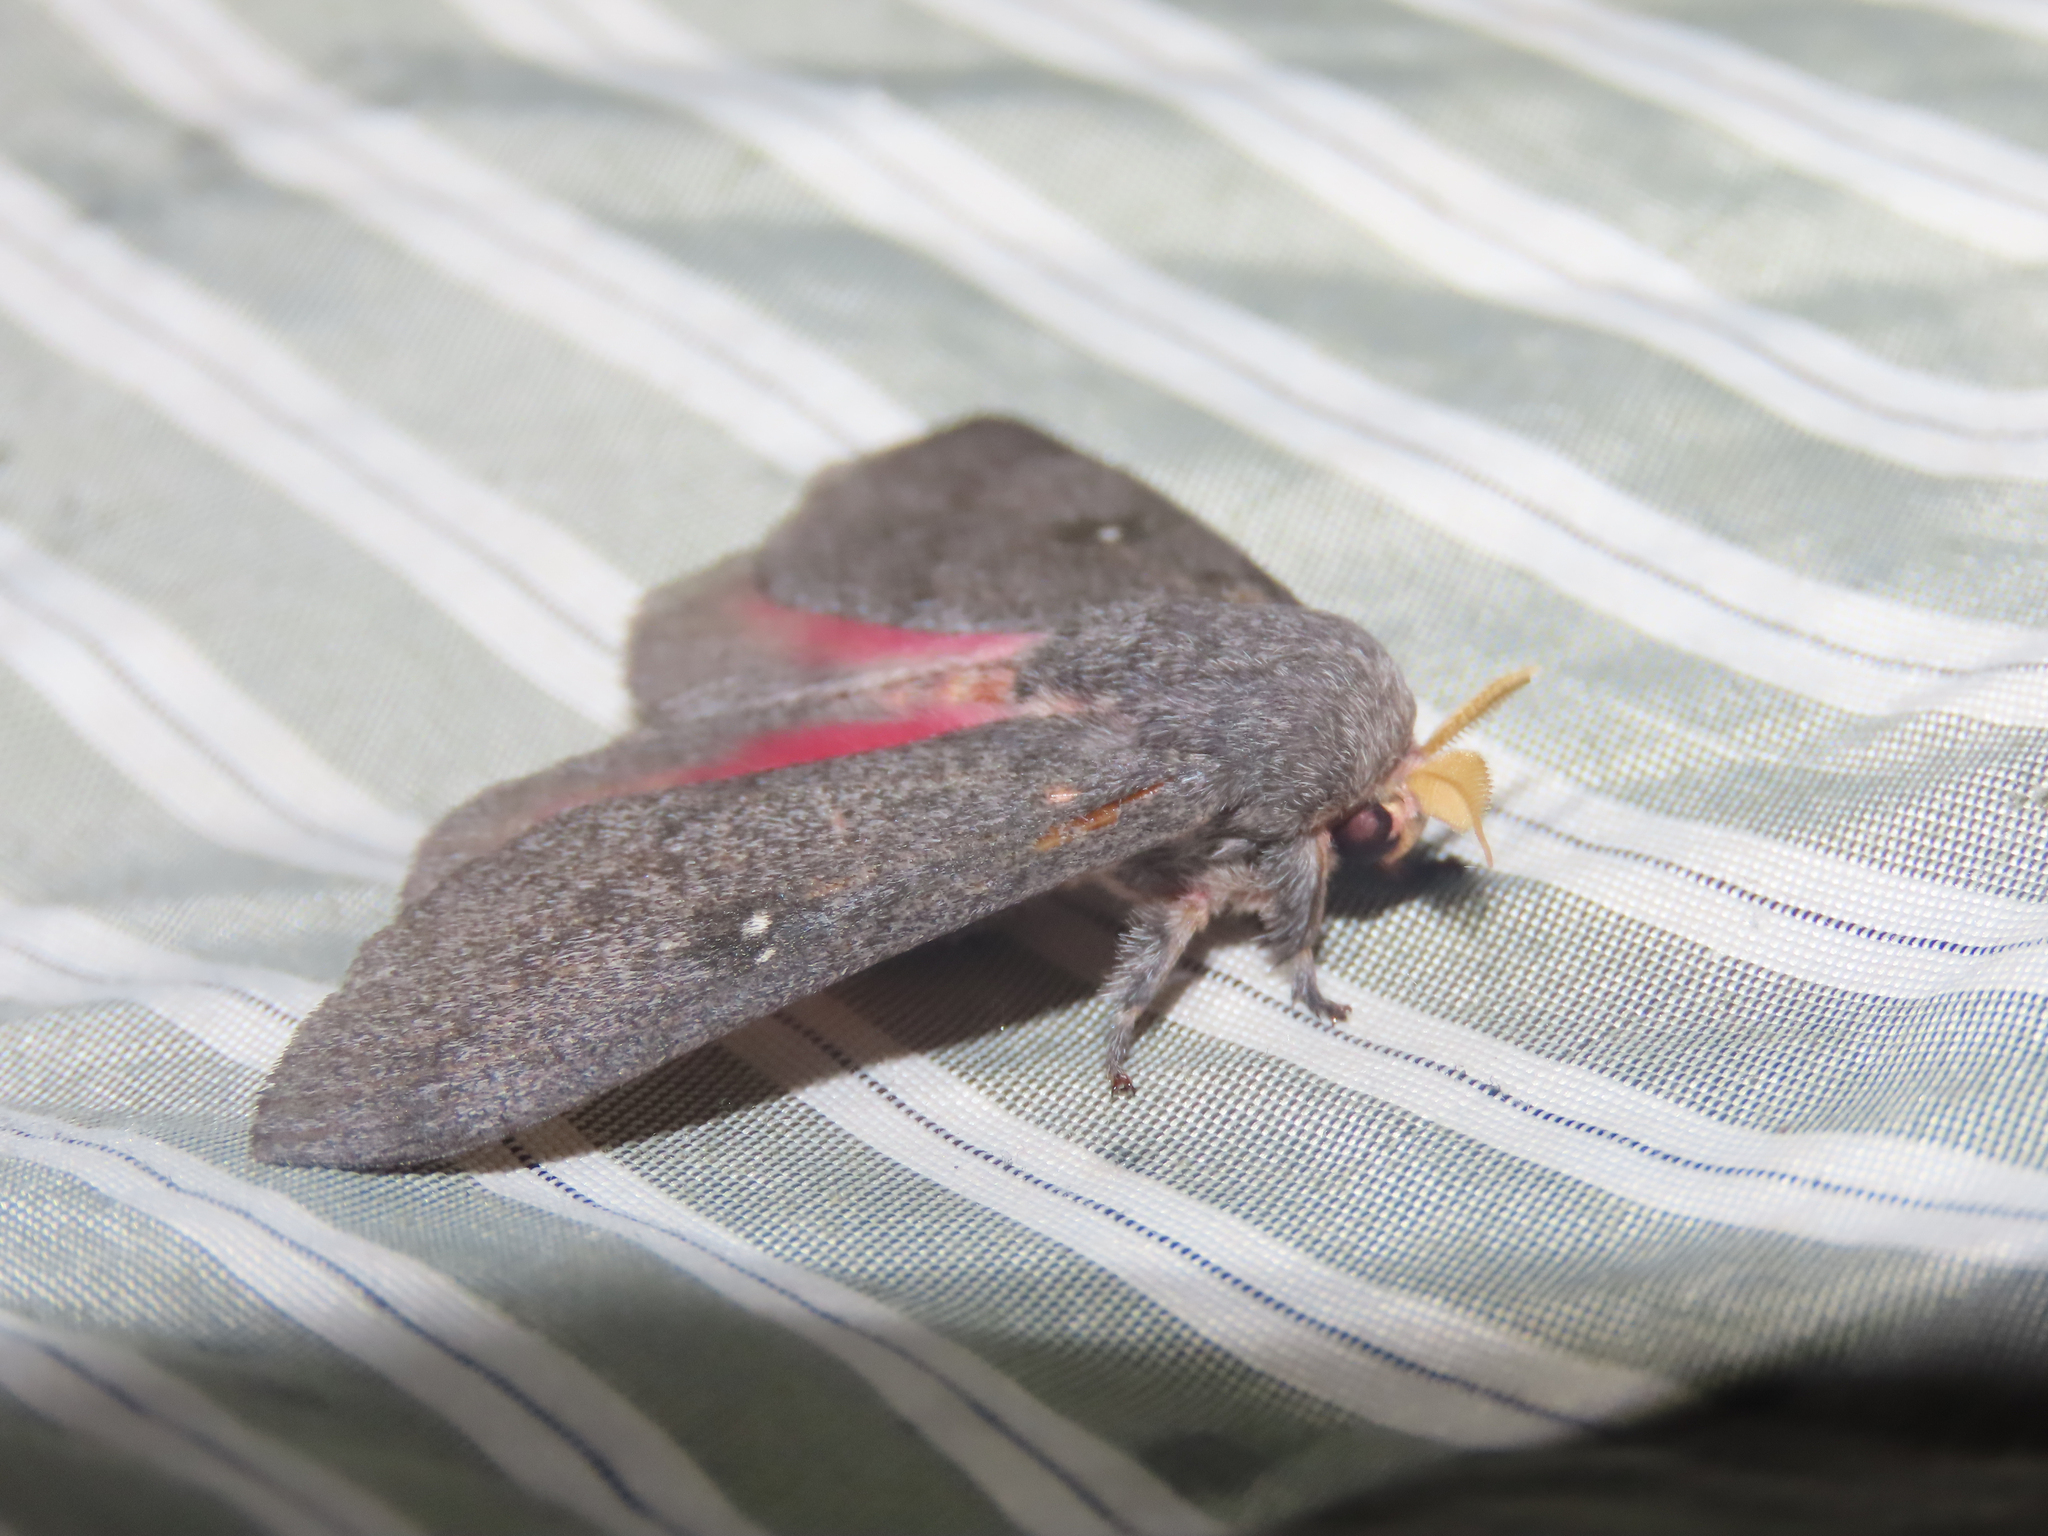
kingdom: Animalia
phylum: Arthropoda
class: Insecta
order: Lepidoptera
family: Saturniidae
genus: Syssphinx
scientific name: Syssphinx hubbardi
